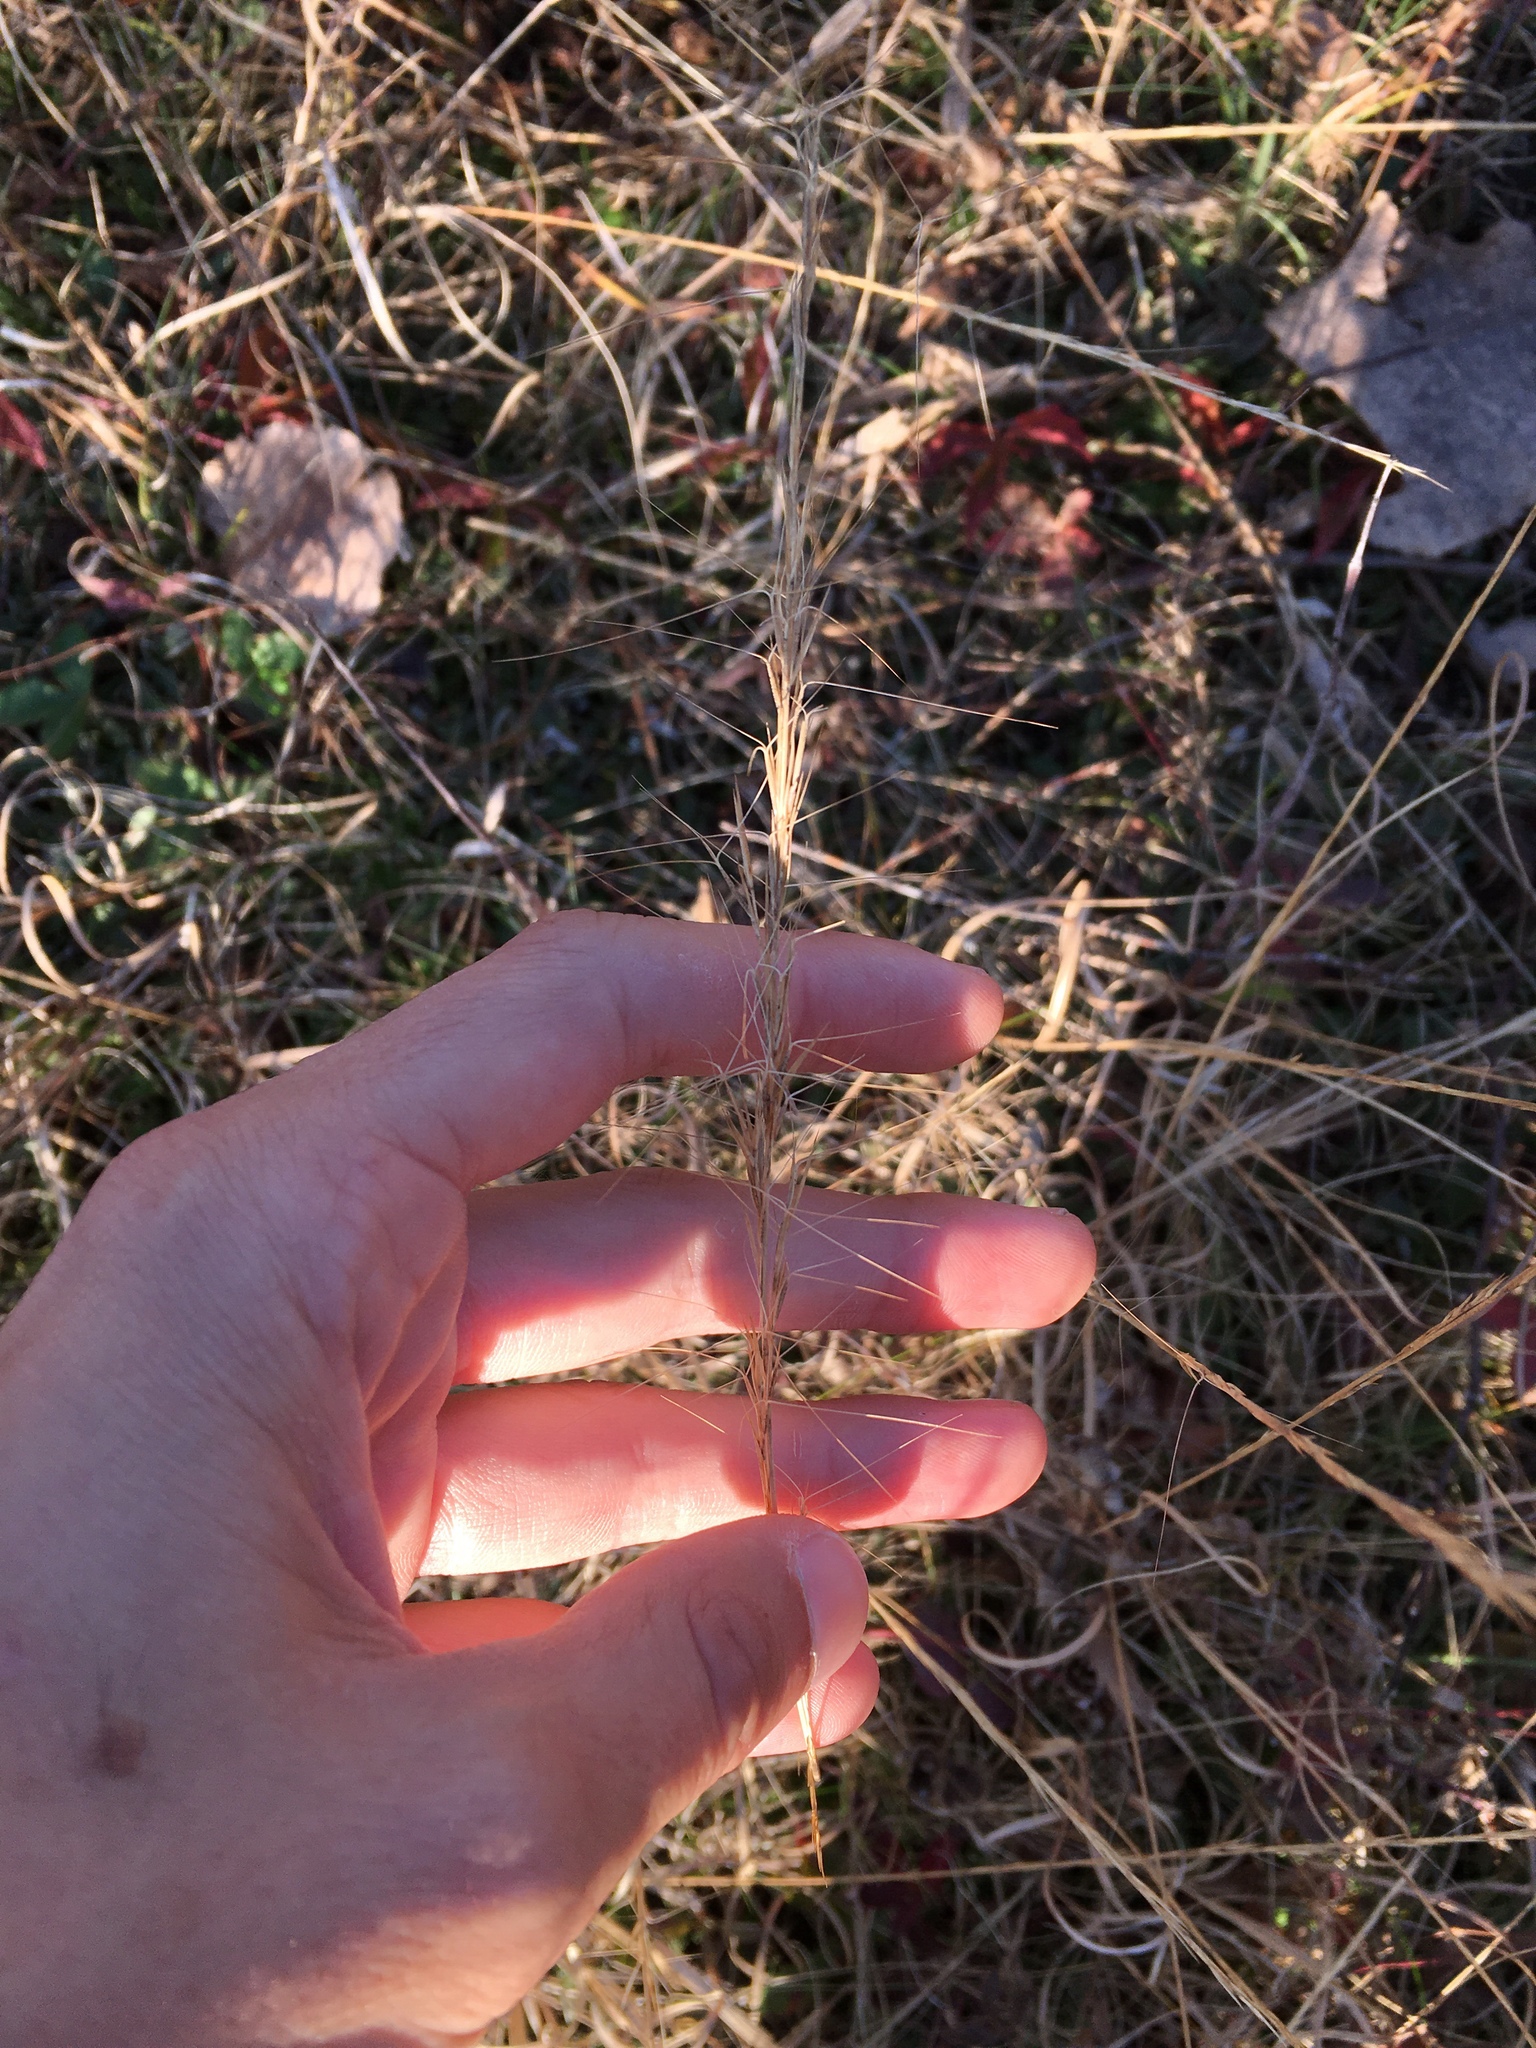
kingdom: Plantae
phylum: Tracheophyta
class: Liliopsida
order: Poales
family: Poaceae
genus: Aristida
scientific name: Aristida purpurascens
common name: Arrow-feather
